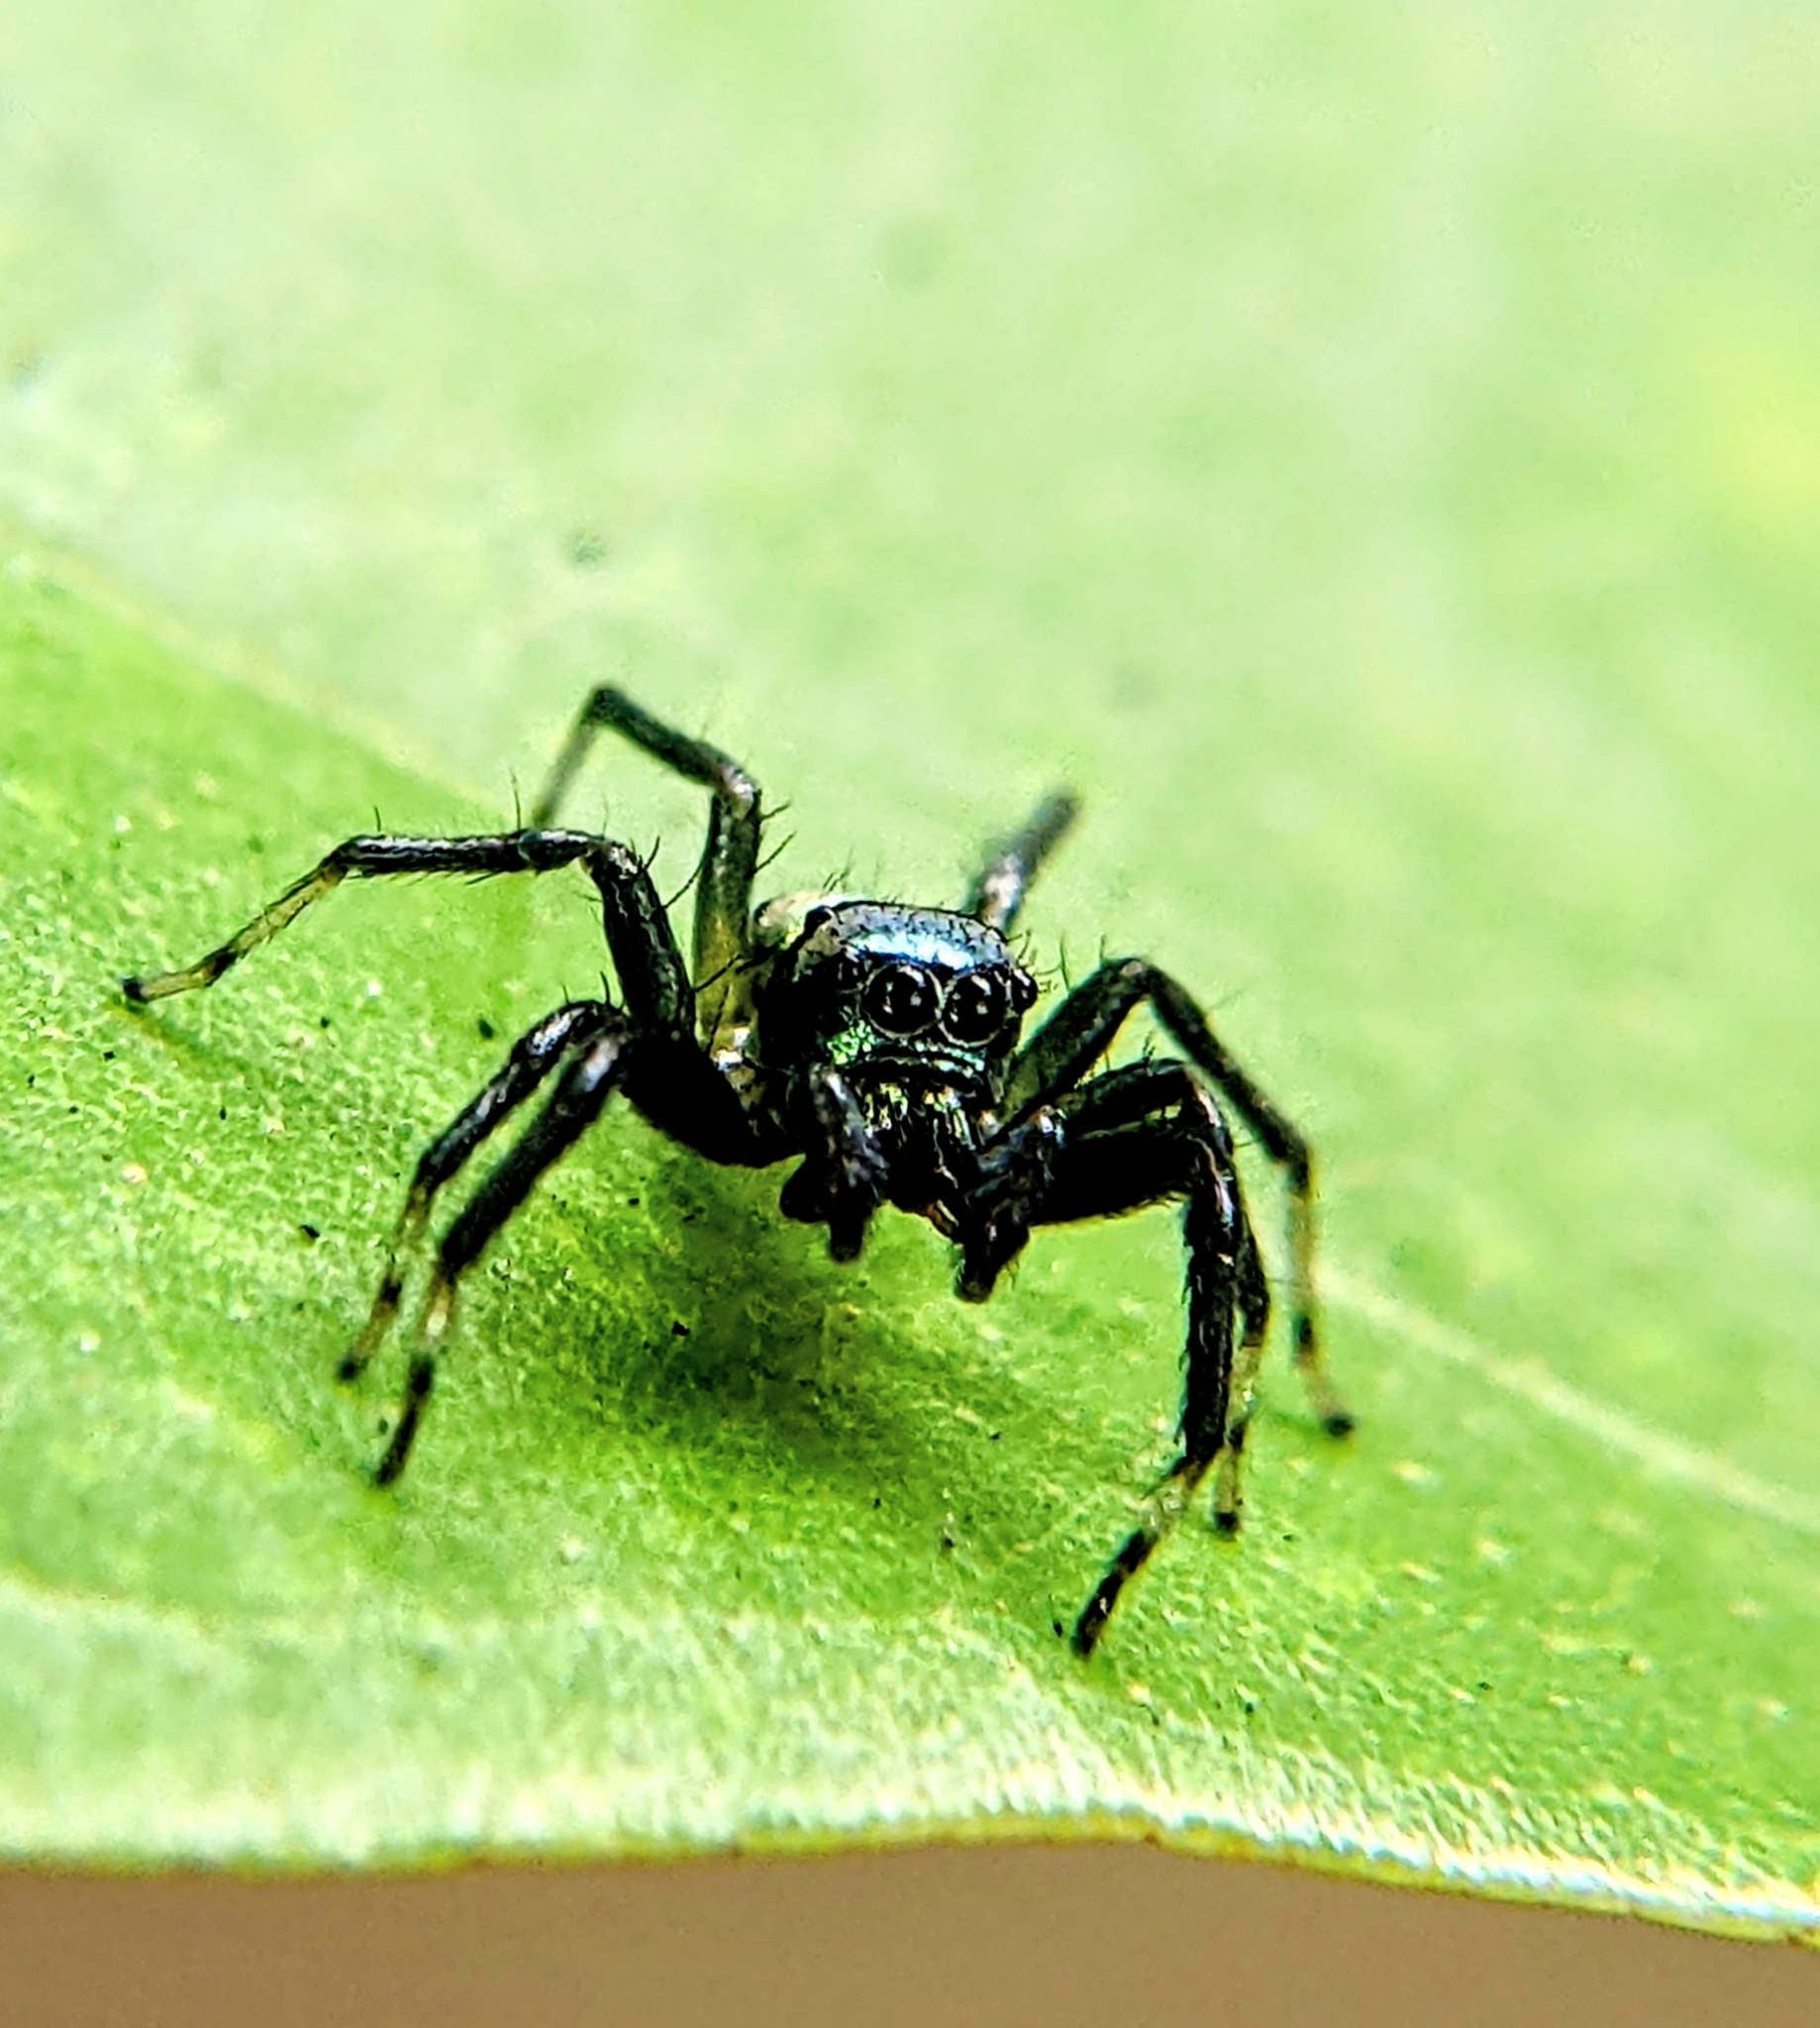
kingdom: Animalia
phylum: Arthropoda
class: Arachnida
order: Araneae
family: Salticidae
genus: Phintella
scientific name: Phintella vittata
